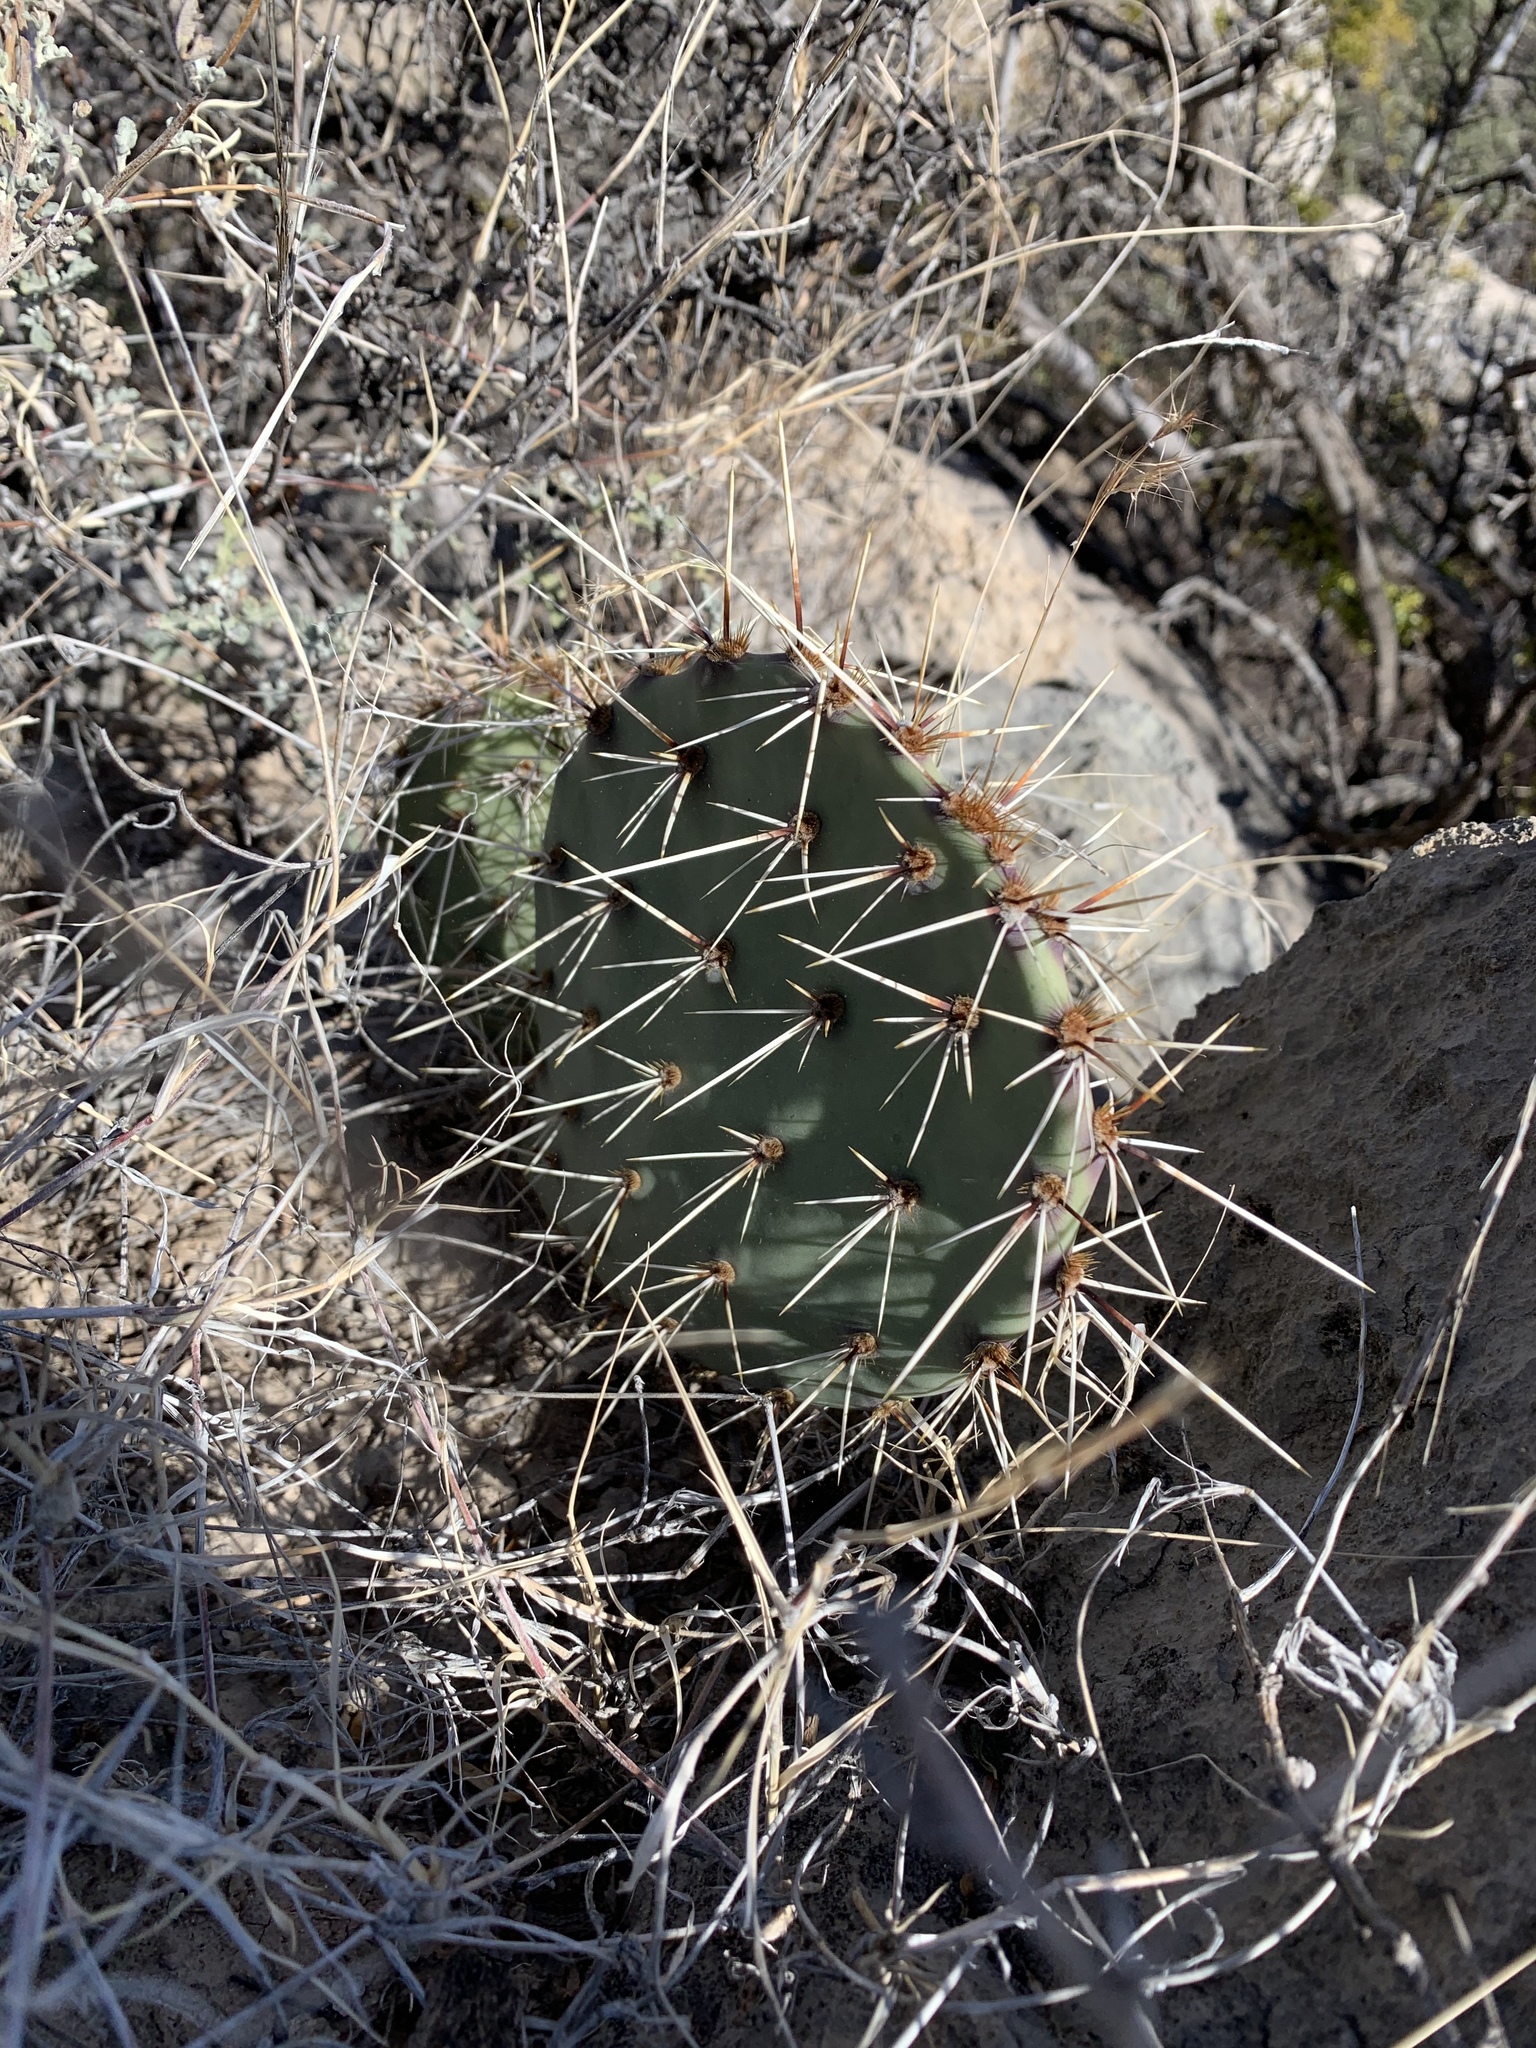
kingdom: Plantae
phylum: Tracheophyta
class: Magnoliopsida
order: Caryophyllales
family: Cactaceae
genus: Opuntia
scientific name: Opuntia phaeacantha
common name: New mexico prickly-pear
